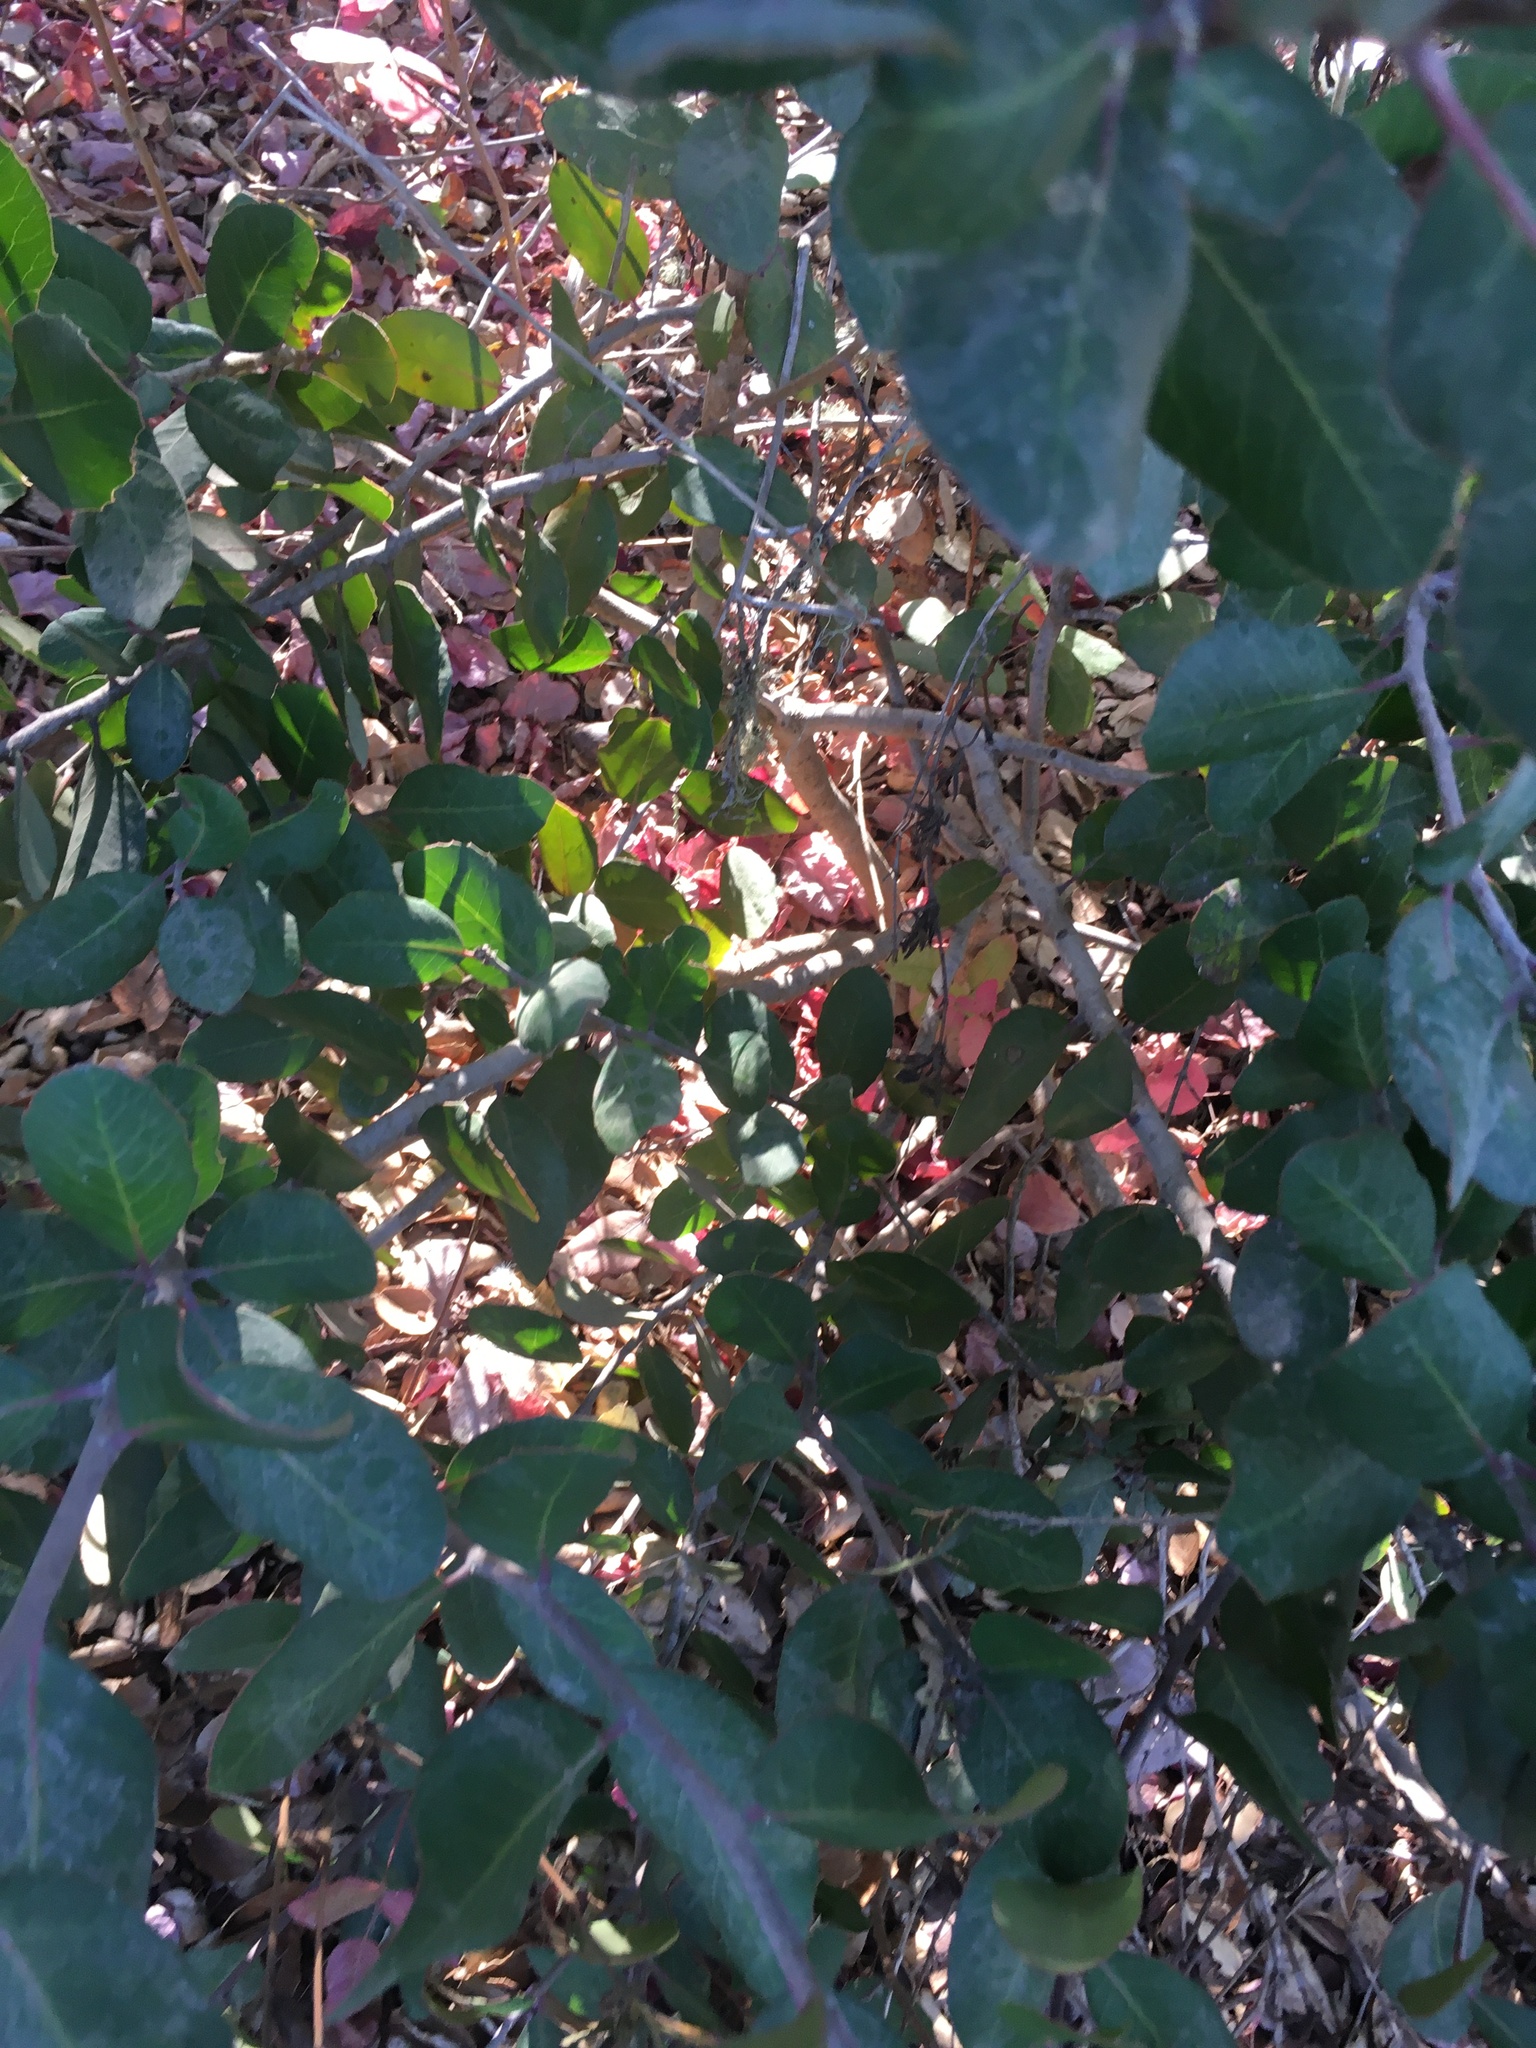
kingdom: Plantae
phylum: Tracheophyta
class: Magnoliopsida
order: Sapindales
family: Anacardiaceae
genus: Rhus
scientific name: Rhus integrifolia
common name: Lemonade sumac
